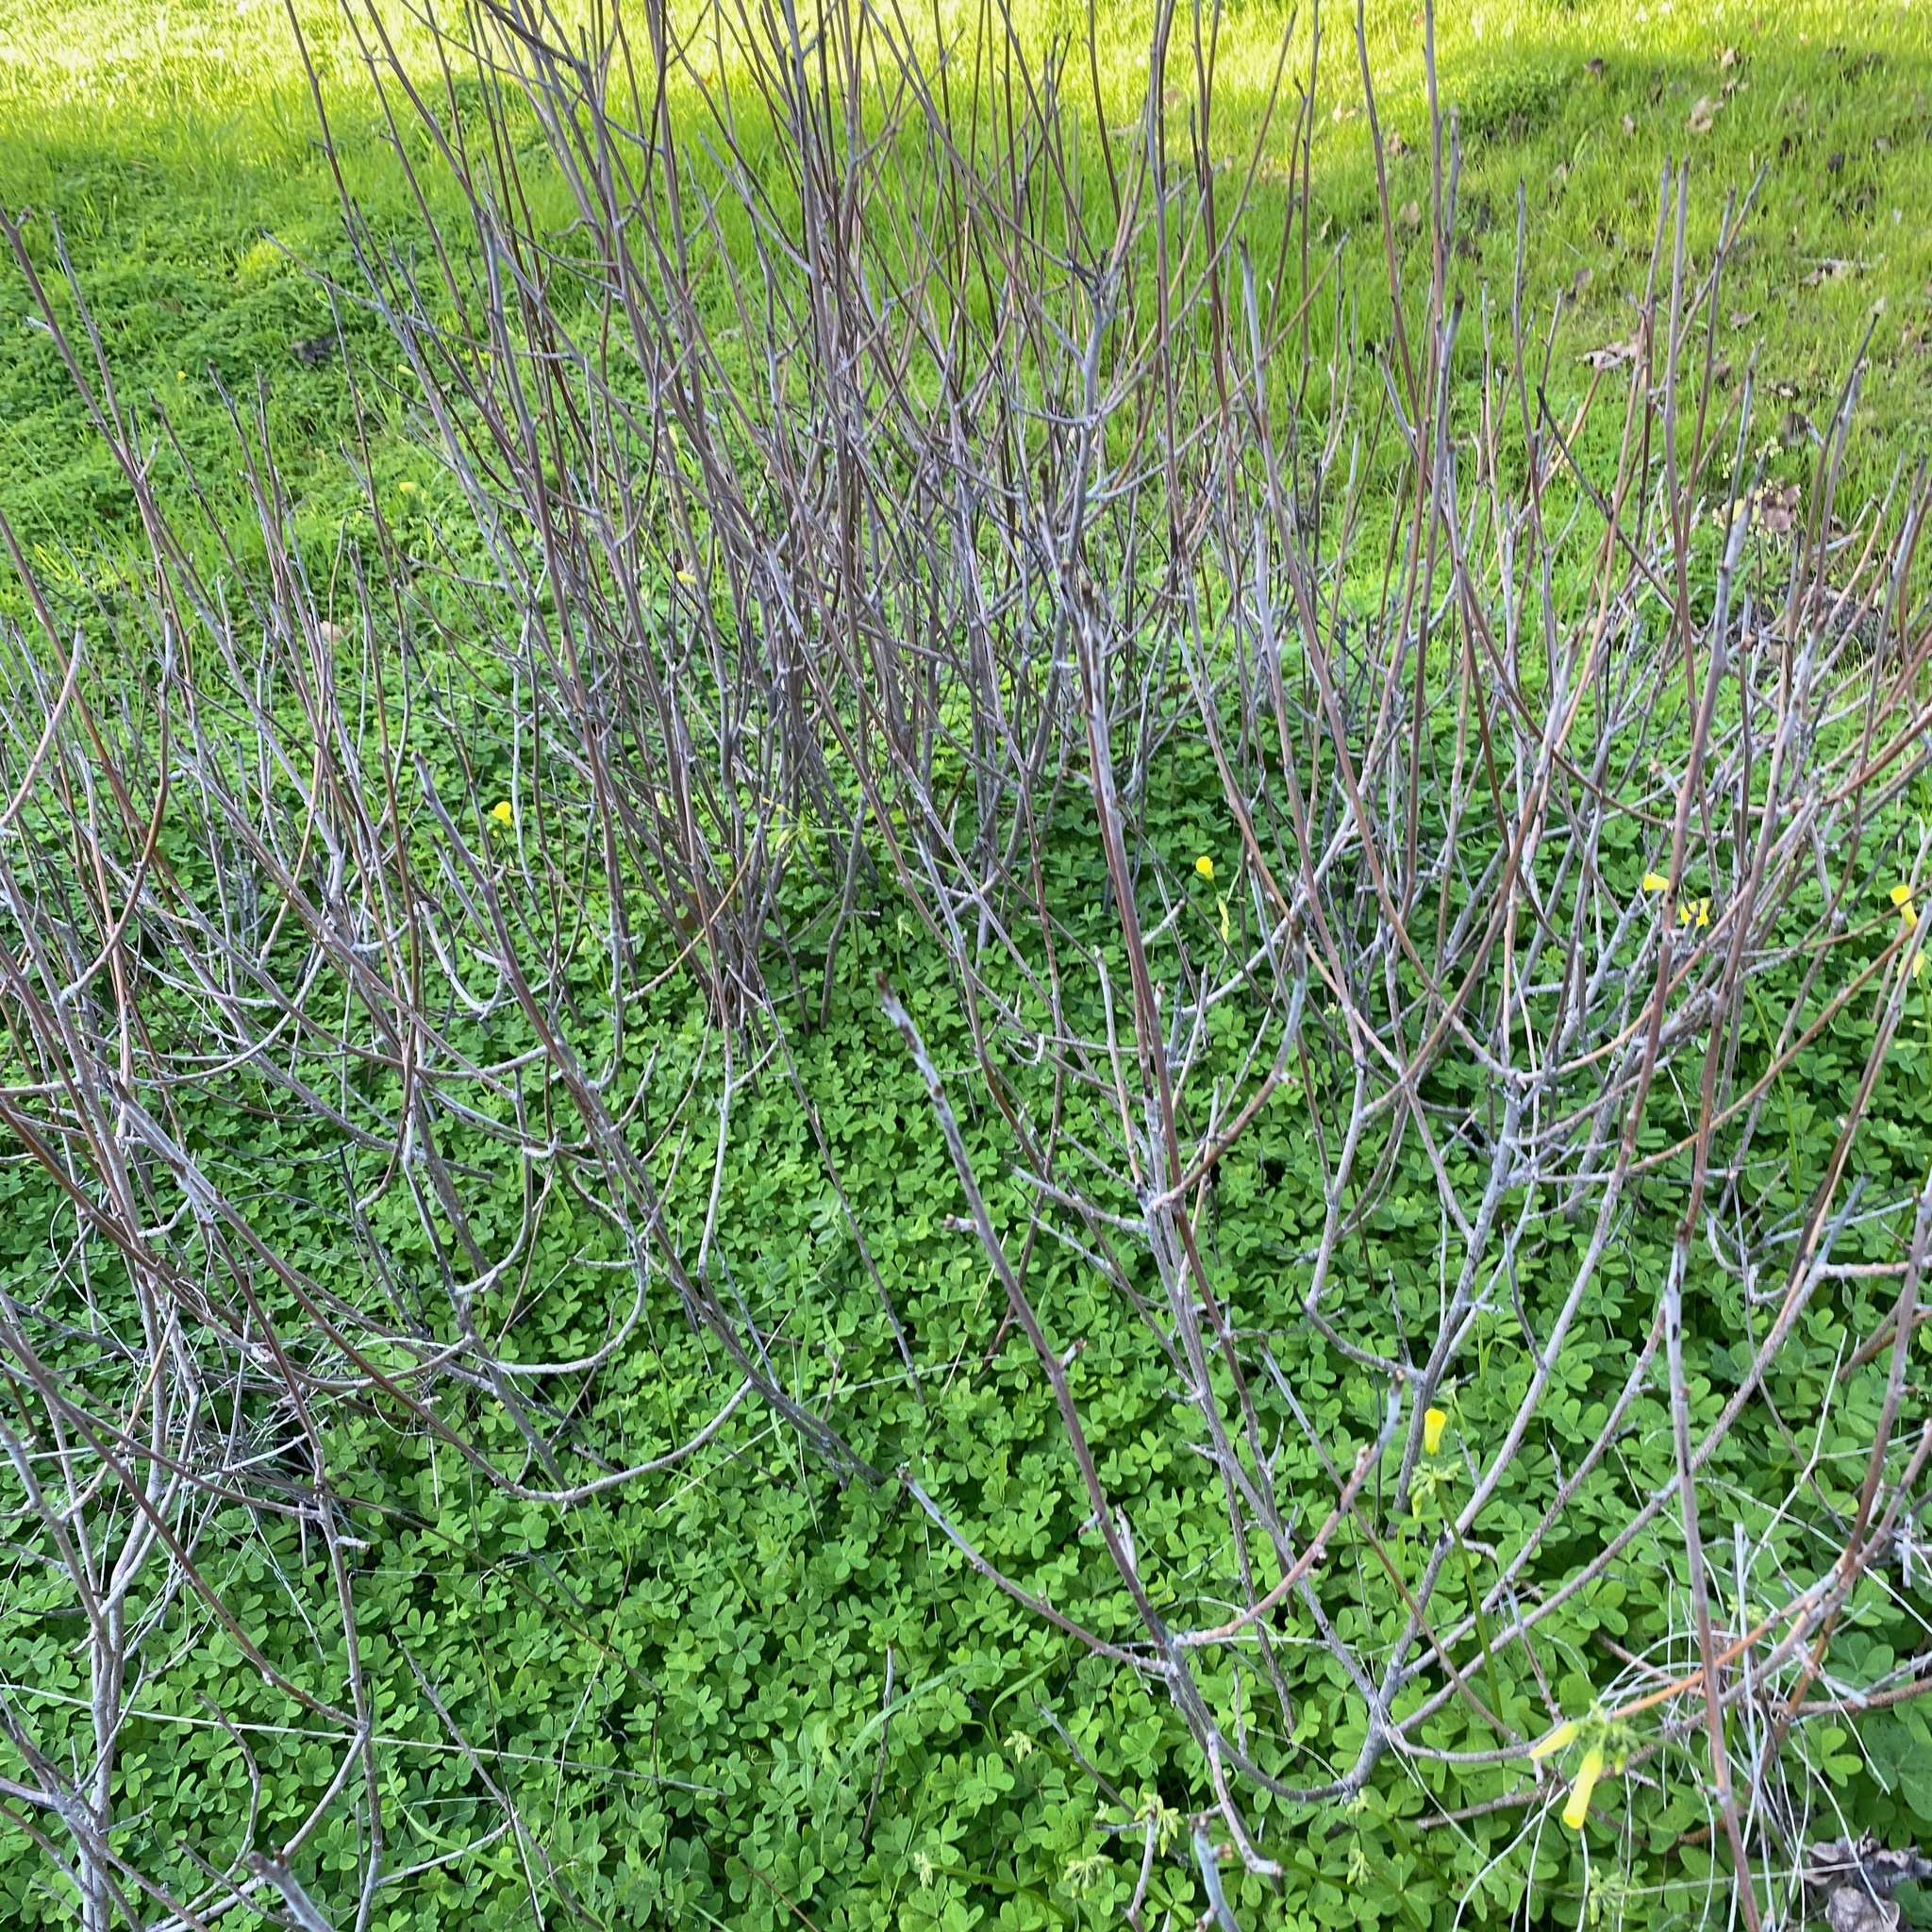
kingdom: Plantae
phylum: Tracheophyta
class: Magnoliopsida
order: Oxalidales
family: Oxalidaceae
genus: Oxalis
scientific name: Oxalis pes-caprae
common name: Bermuda-buttercup
